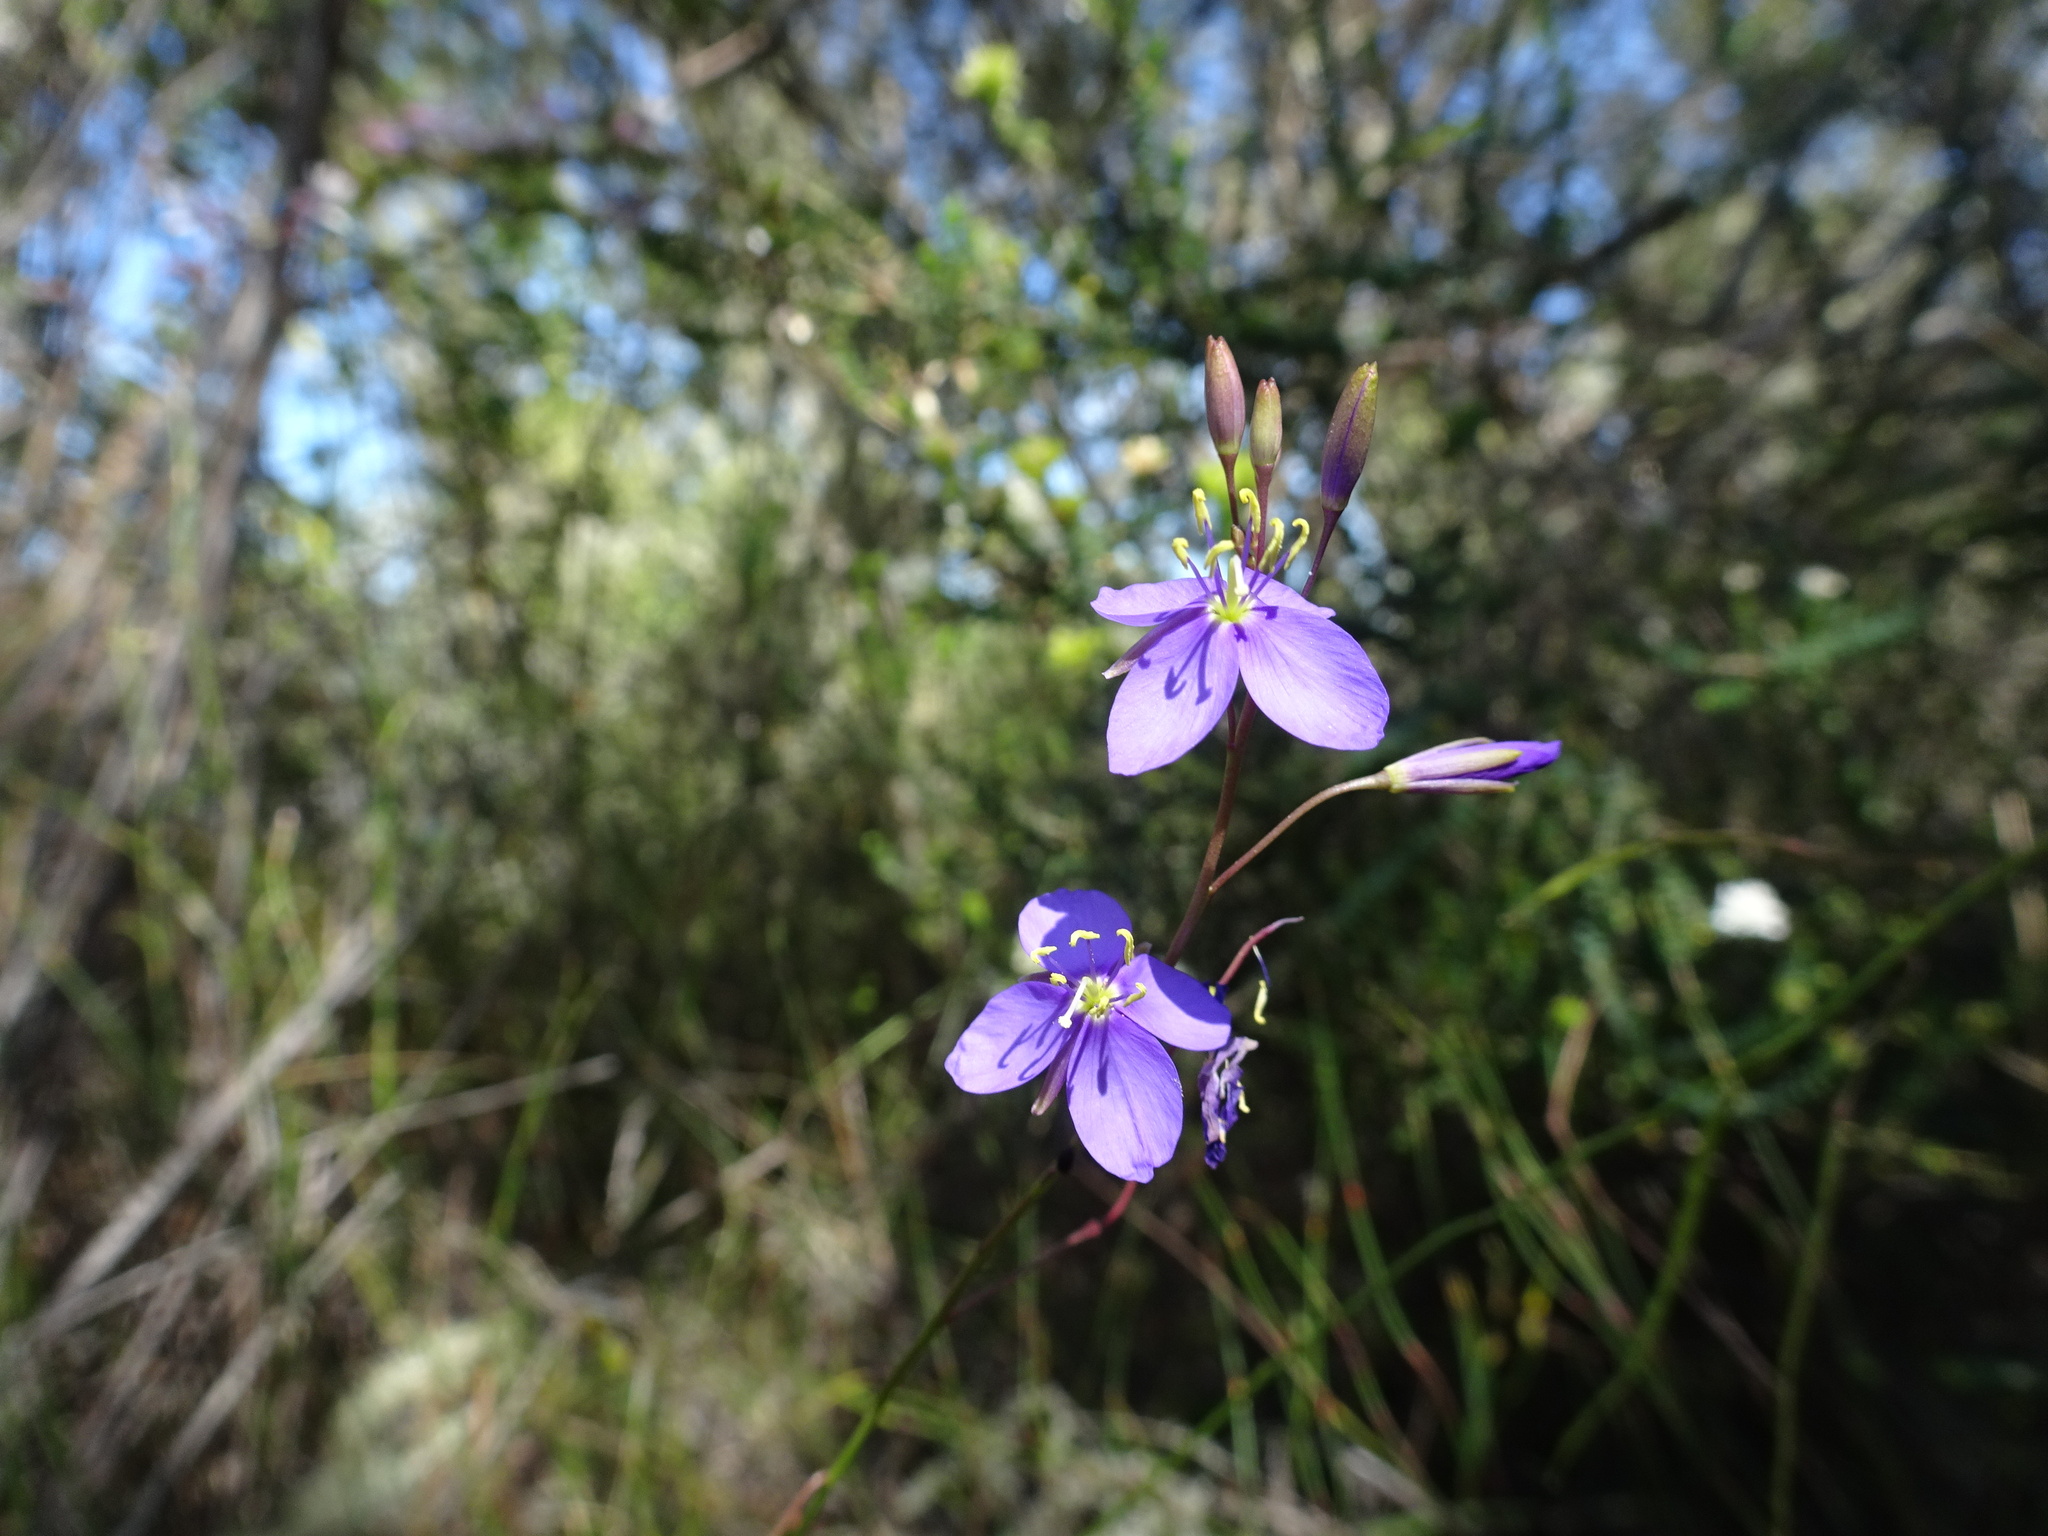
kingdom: Plantae
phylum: Tracheophyta
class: Magnoliopsida
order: Brassicales
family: Brassicaceae
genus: Heliophila
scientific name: Heliophila subulata
